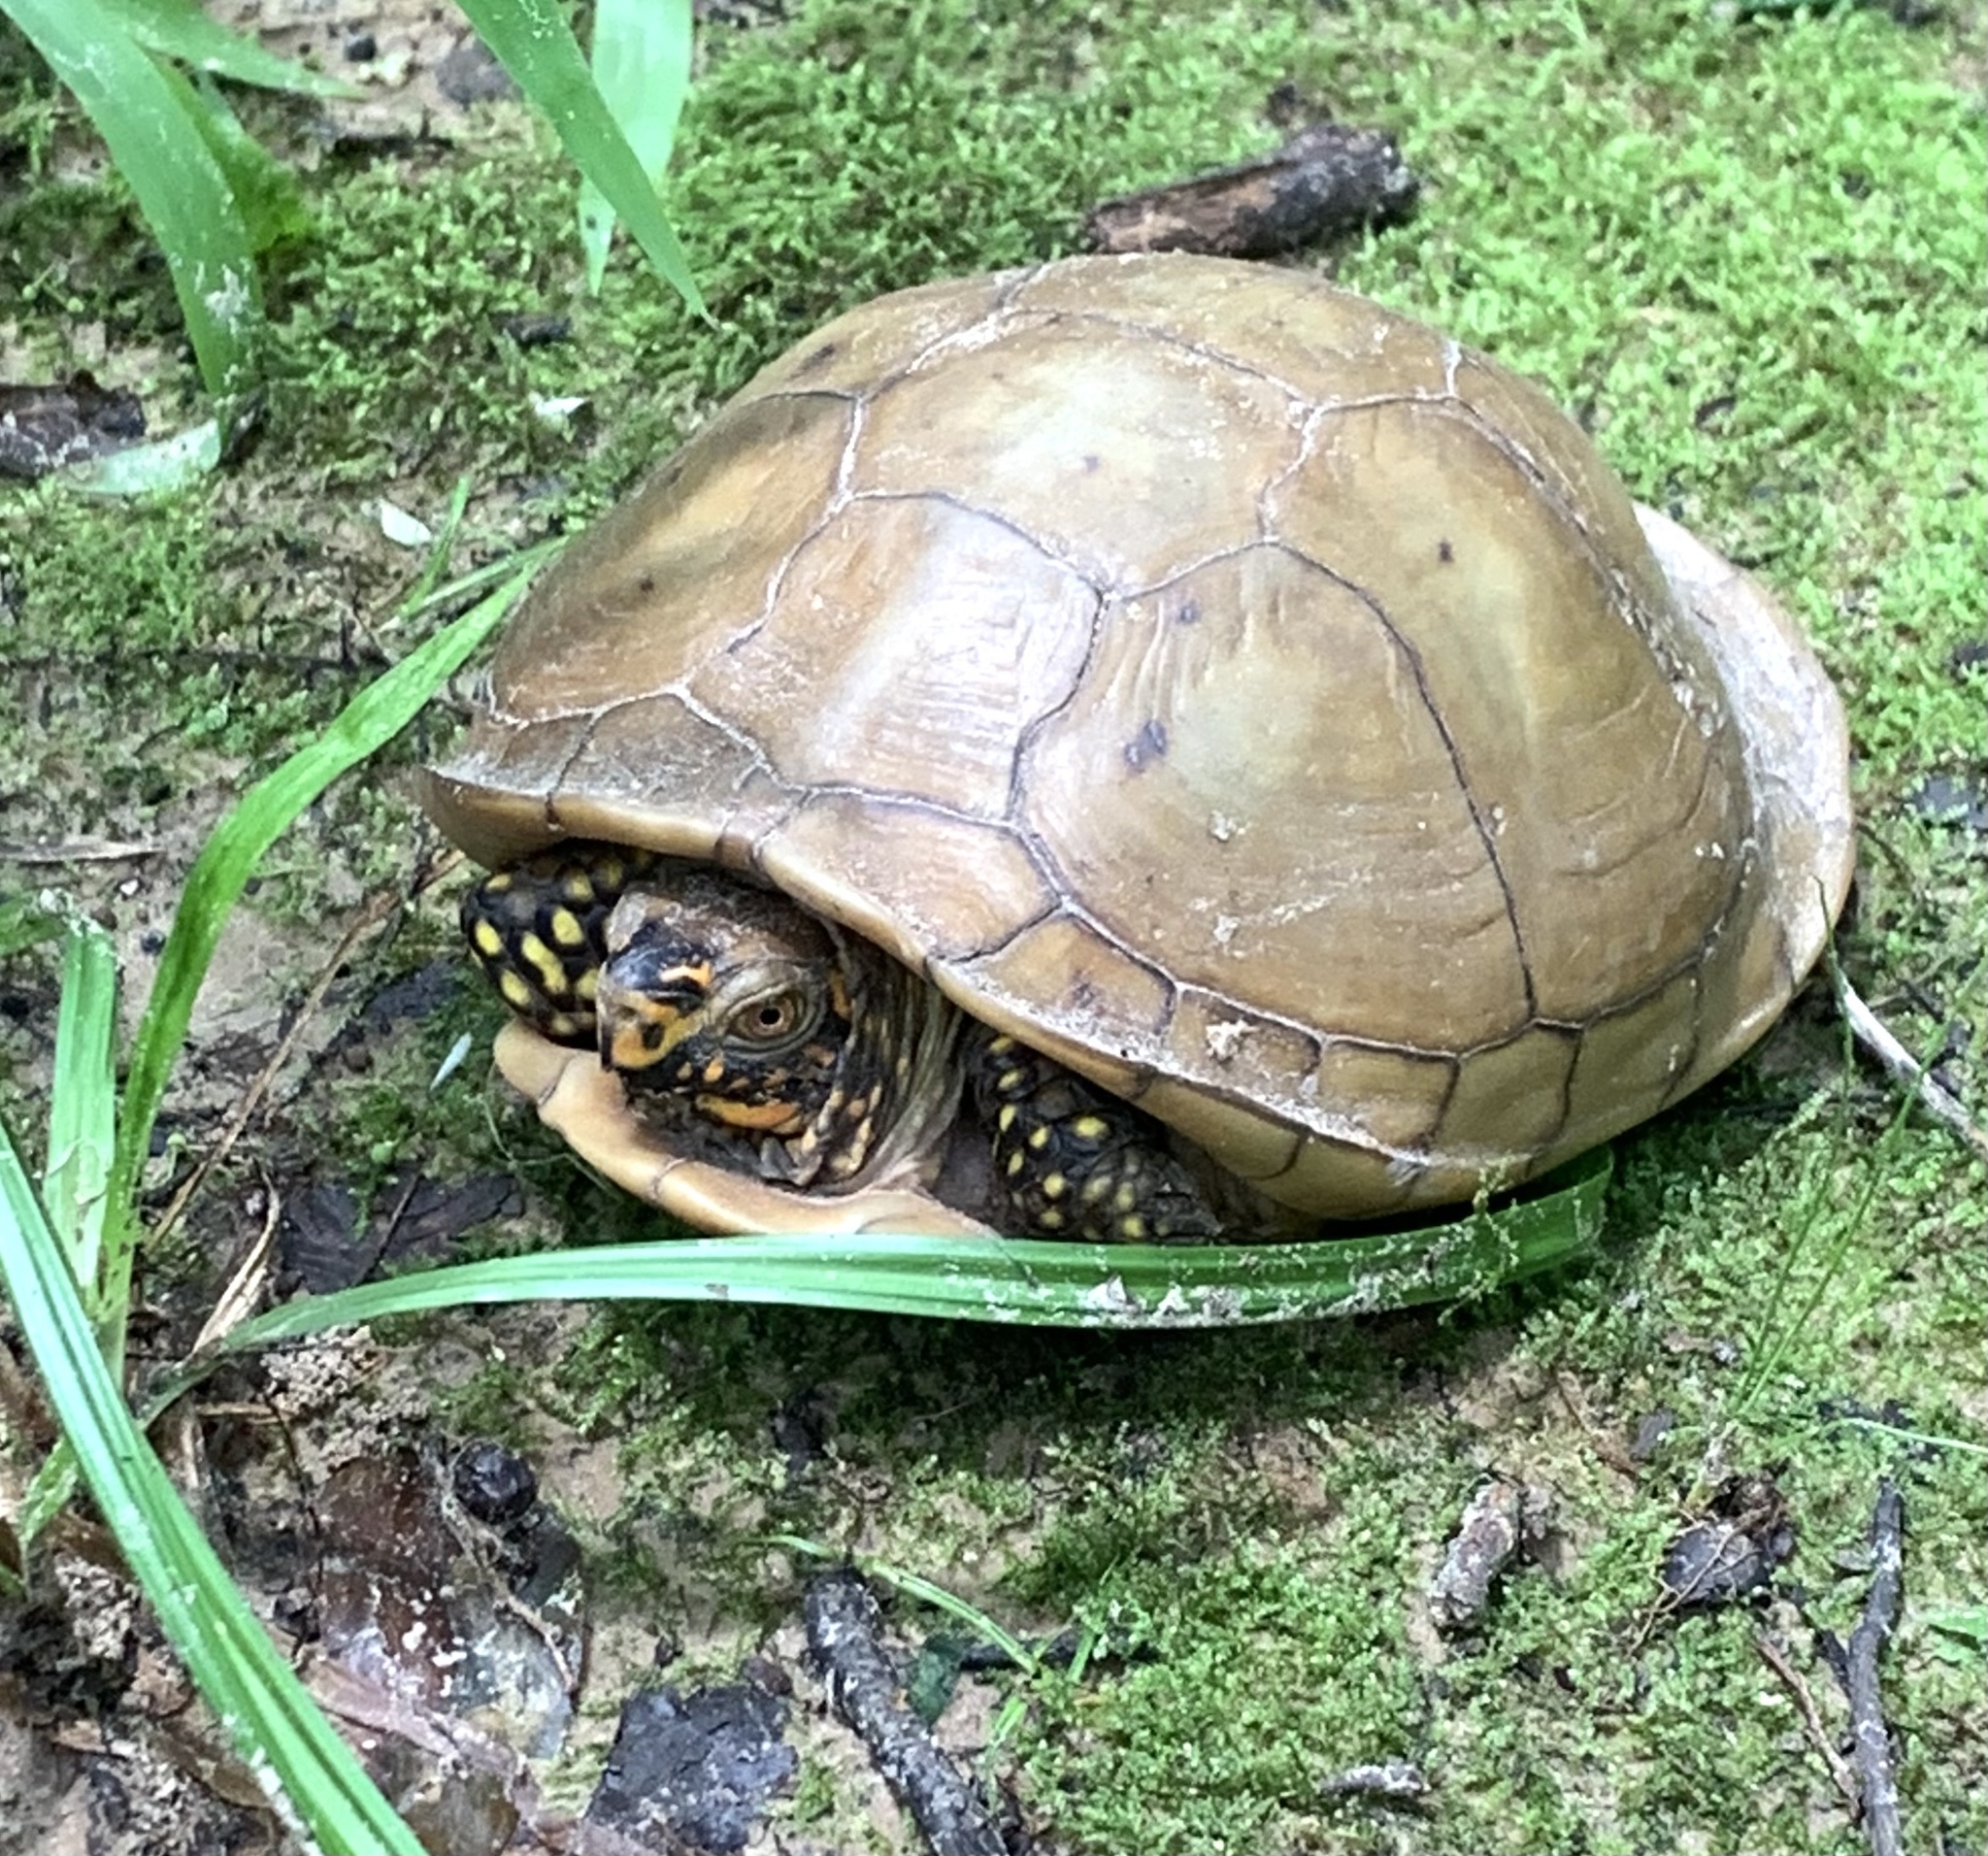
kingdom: Animalia
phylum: Chordata
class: Testudines
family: Emydidae
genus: Terrapene
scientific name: Terrapene carolina
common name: Common box turtle
